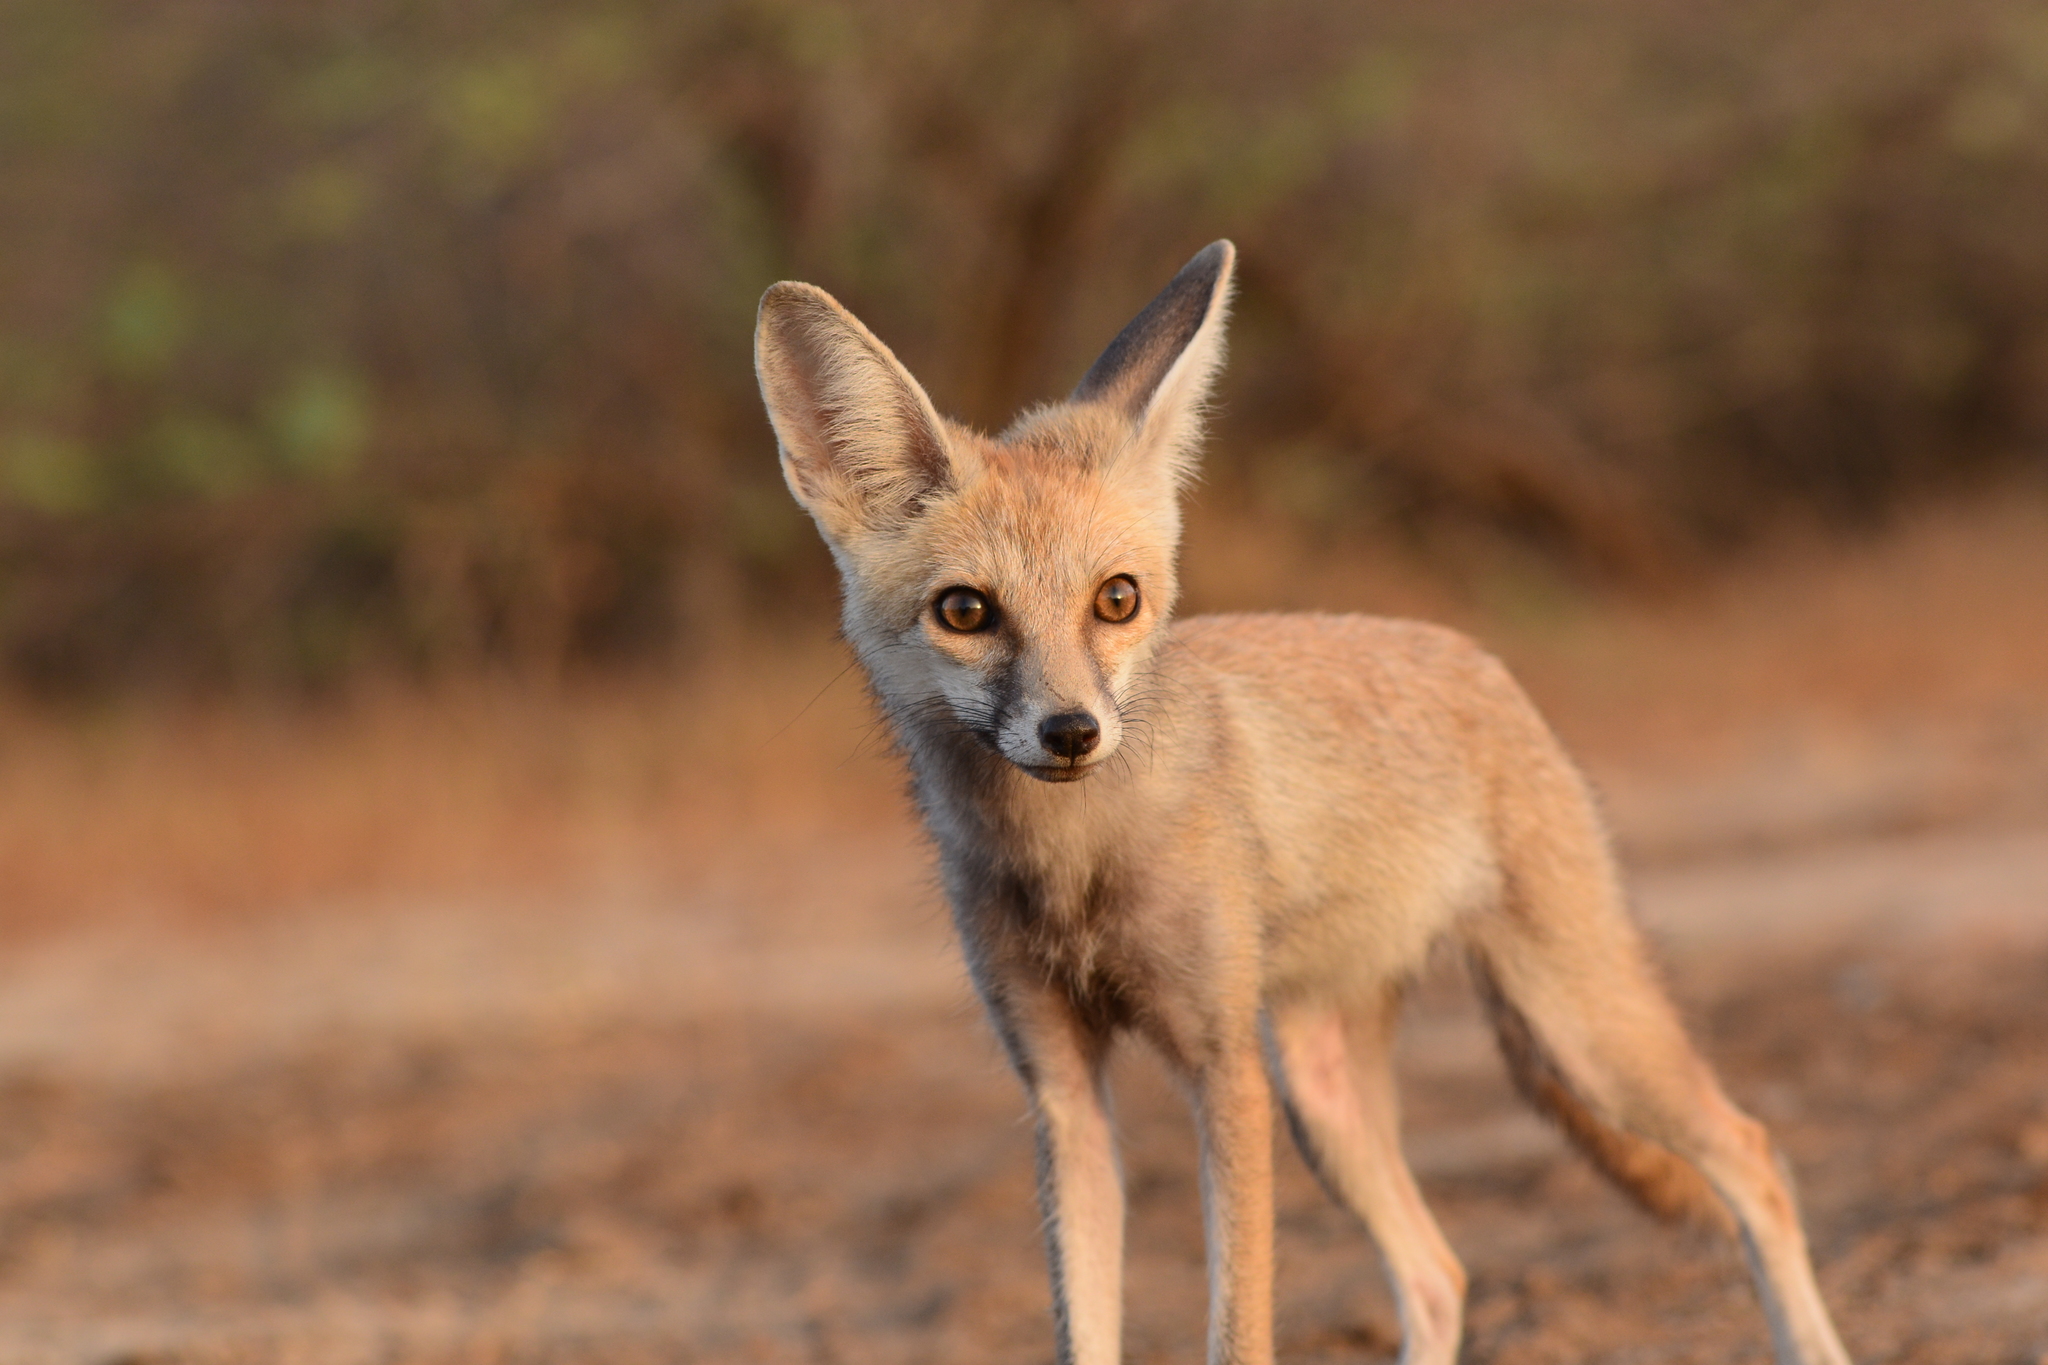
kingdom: Animalia
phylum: Chordata
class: Mammalia
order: Carnivora
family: Canidae
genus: Vulpes
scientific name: Vulpes vulpes
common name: Red fox
